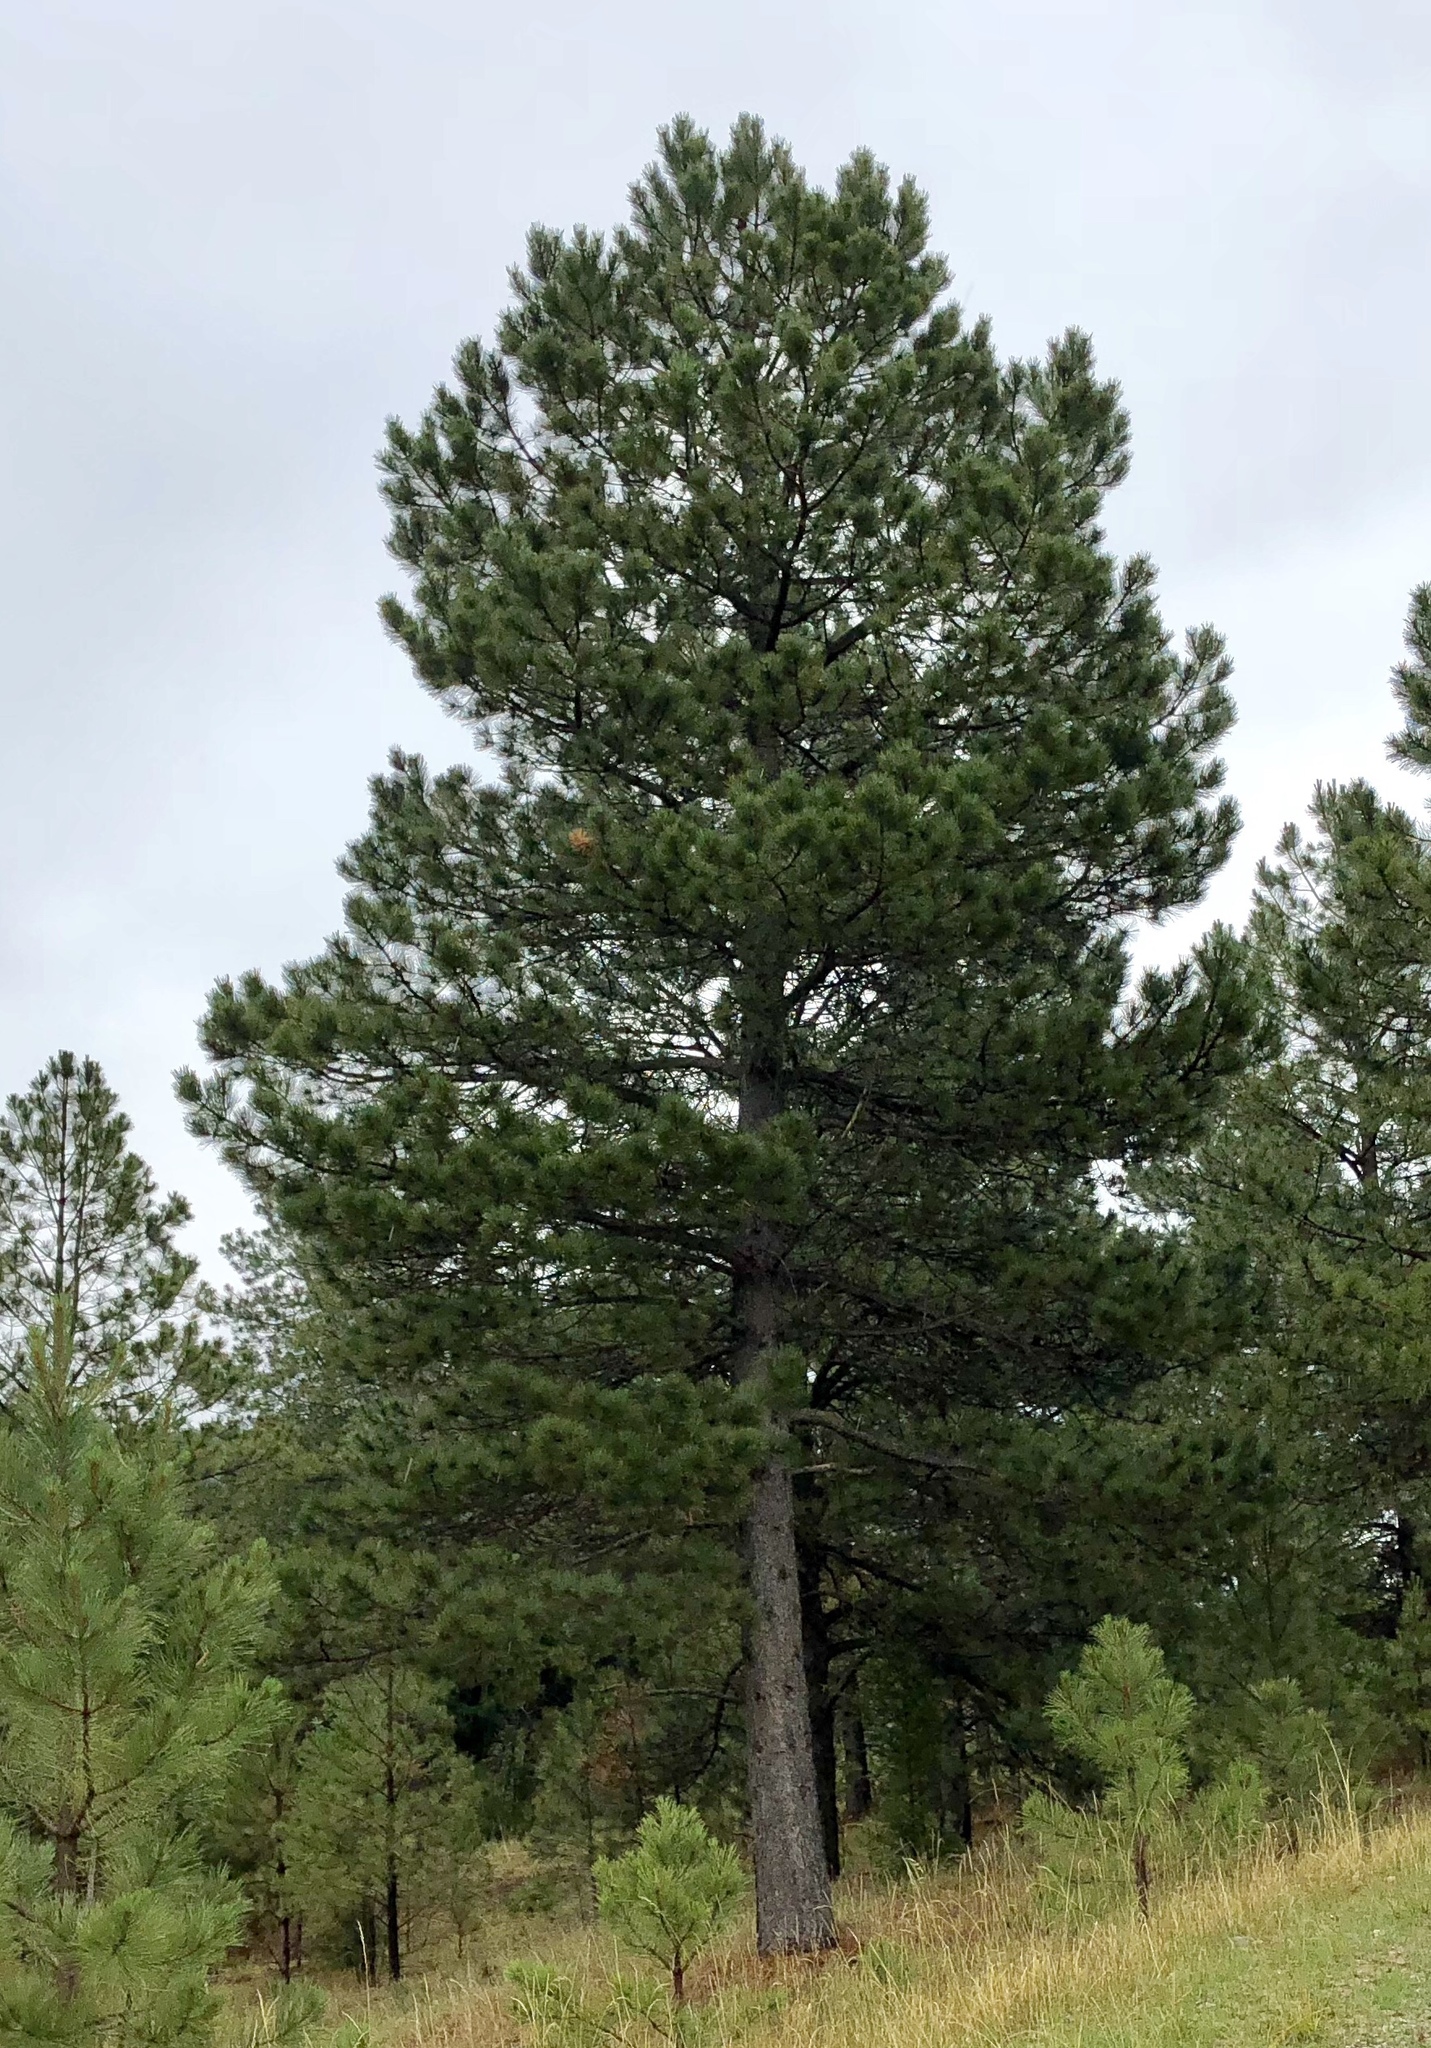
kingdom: Plantae
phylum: Tracheophyta
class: Pinopsida
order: Pinales
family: Pinaceae
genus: Pinus
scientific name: Pinus strobiformis
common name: Southwestern white pine
